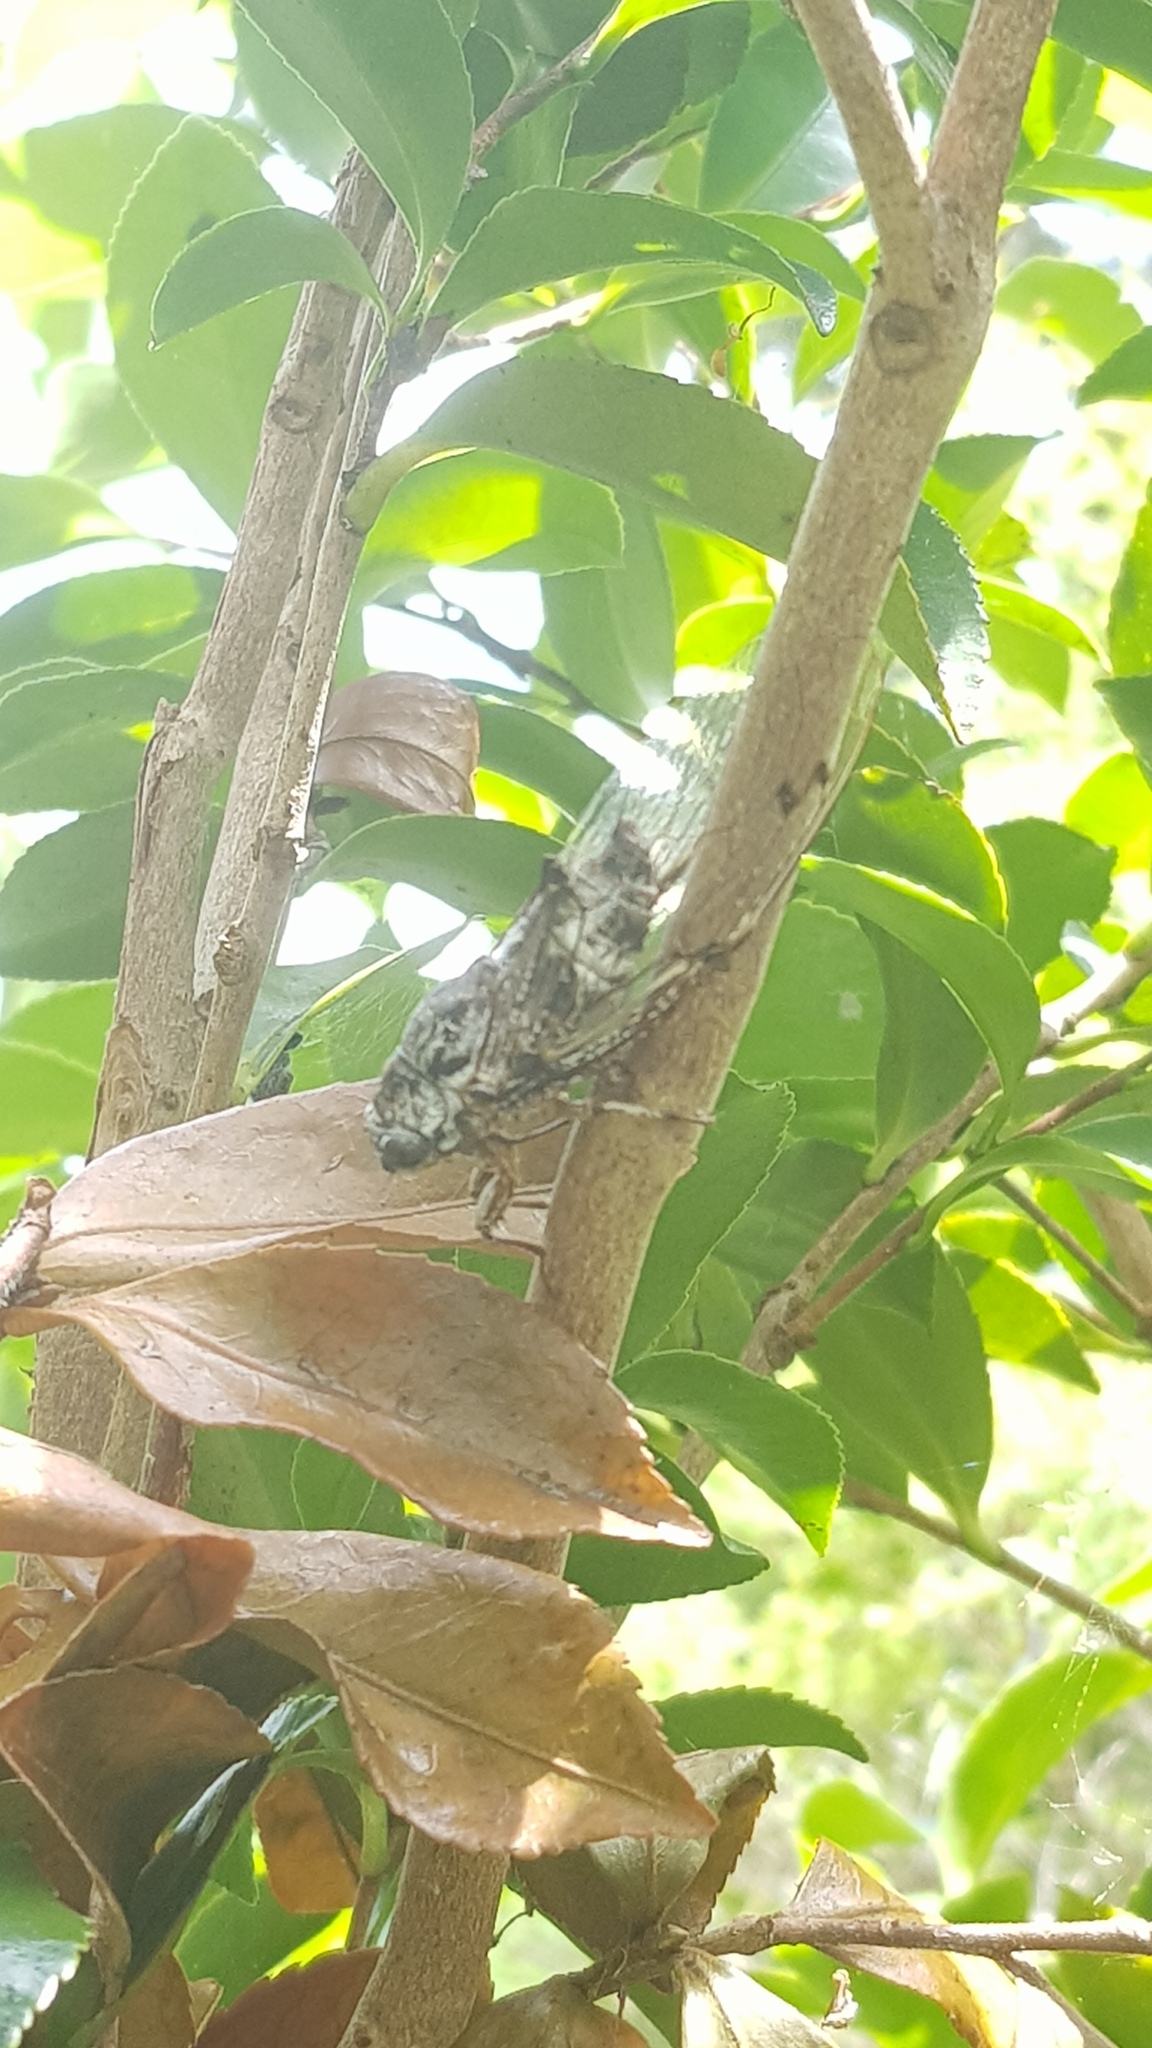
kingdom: Animalia
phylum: Arthropoda
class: Insecta
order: Hemiptera
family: Cicadidae
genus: Aleeta
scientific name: Aleeta curvicosta
